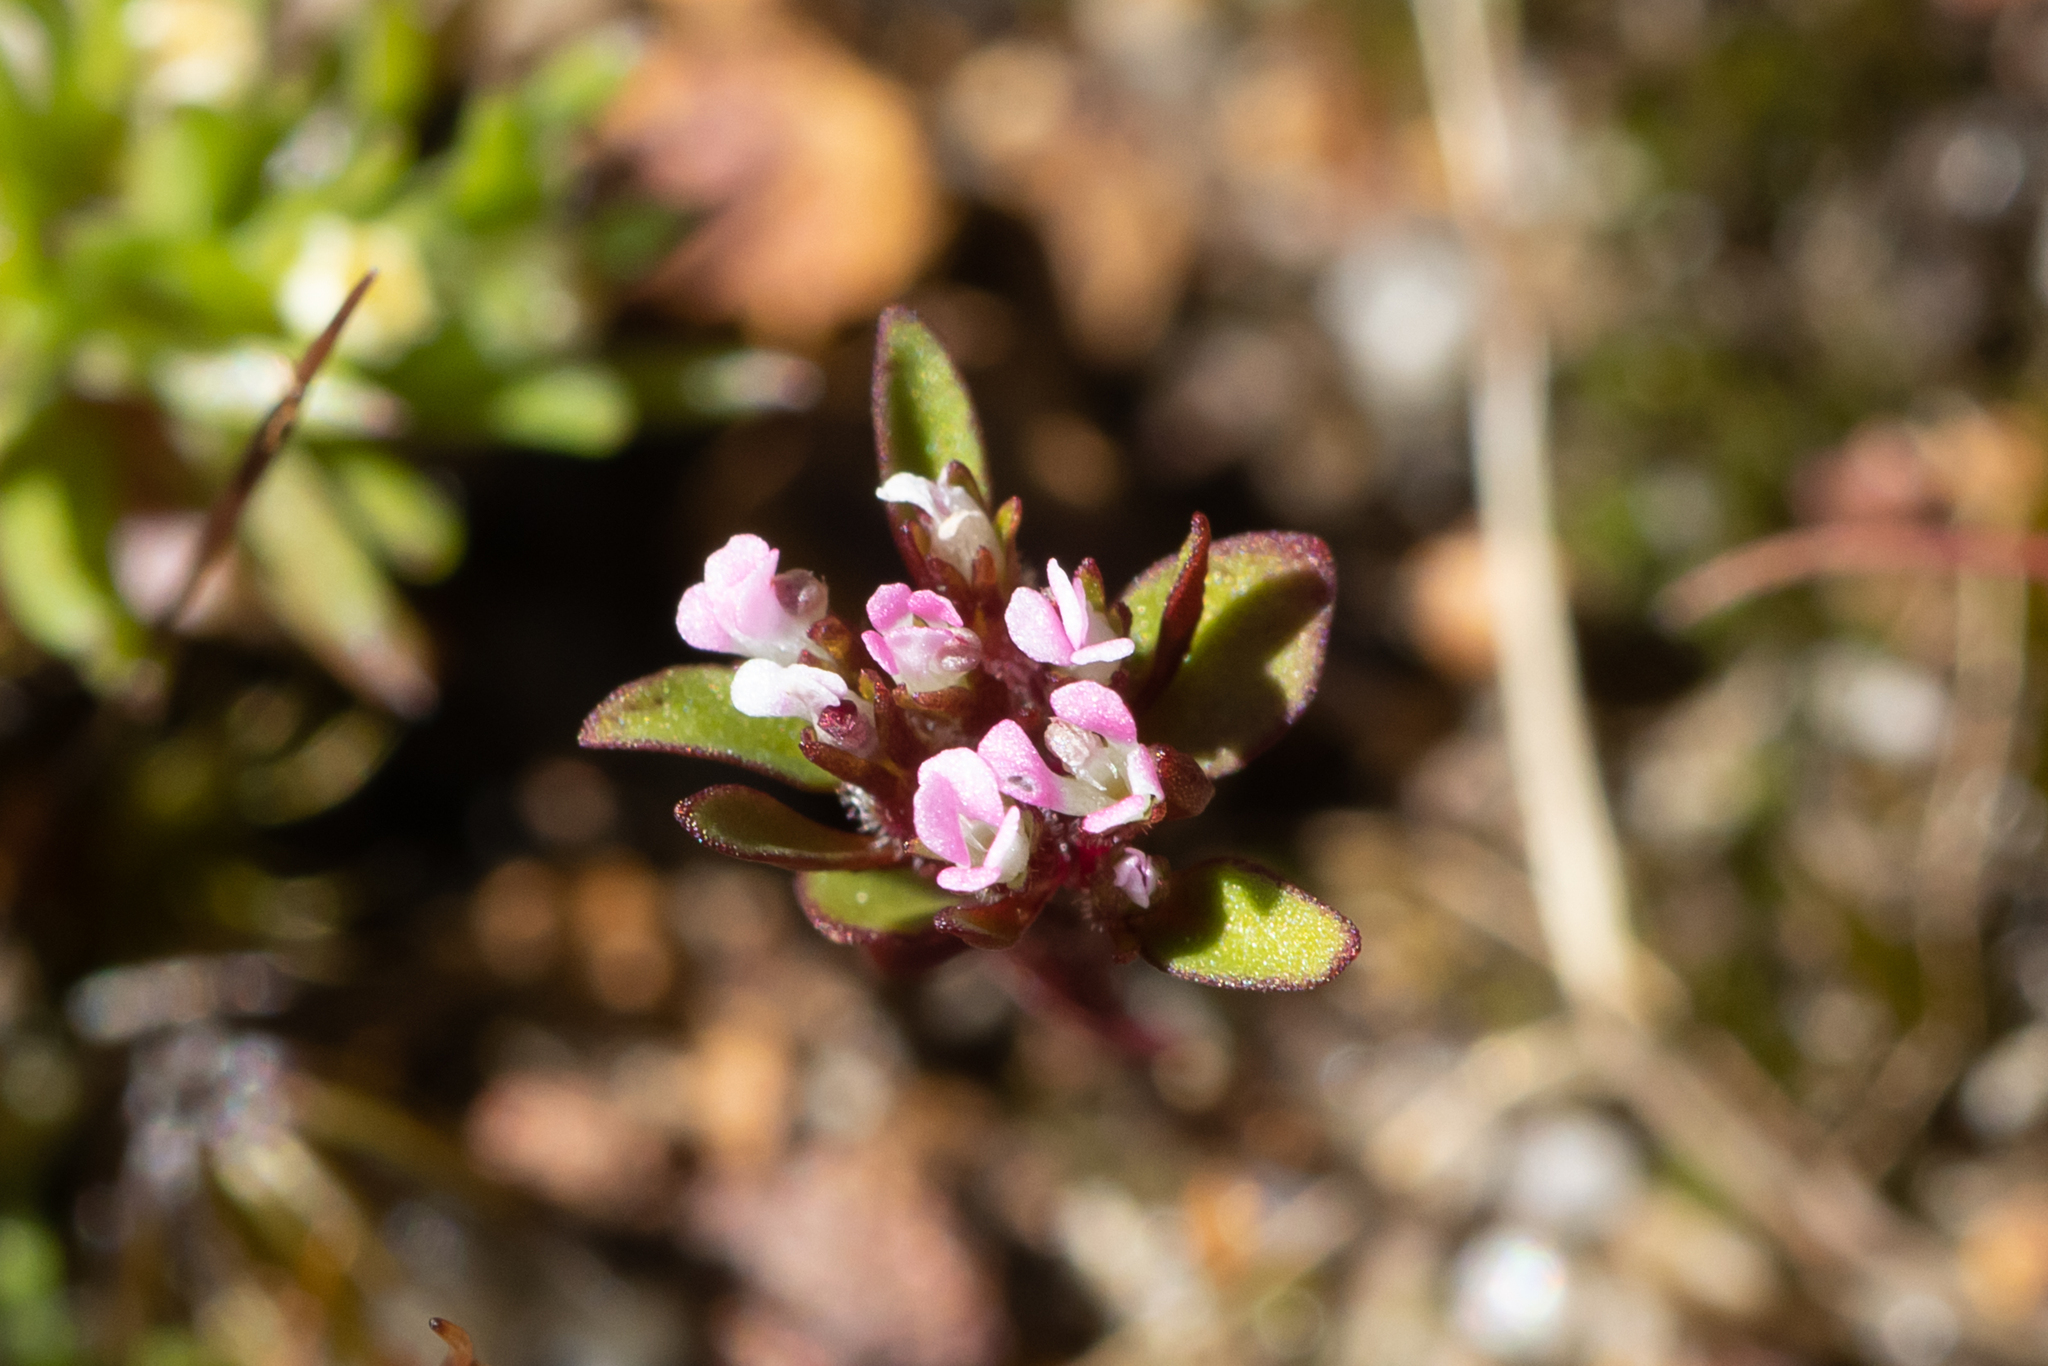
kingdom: Plantae
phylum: Tracheophyta
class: Magnoliopsida
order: Asterales
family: Stylidiaceae
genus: Levenhookia
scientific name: Levenhookia pusilla
